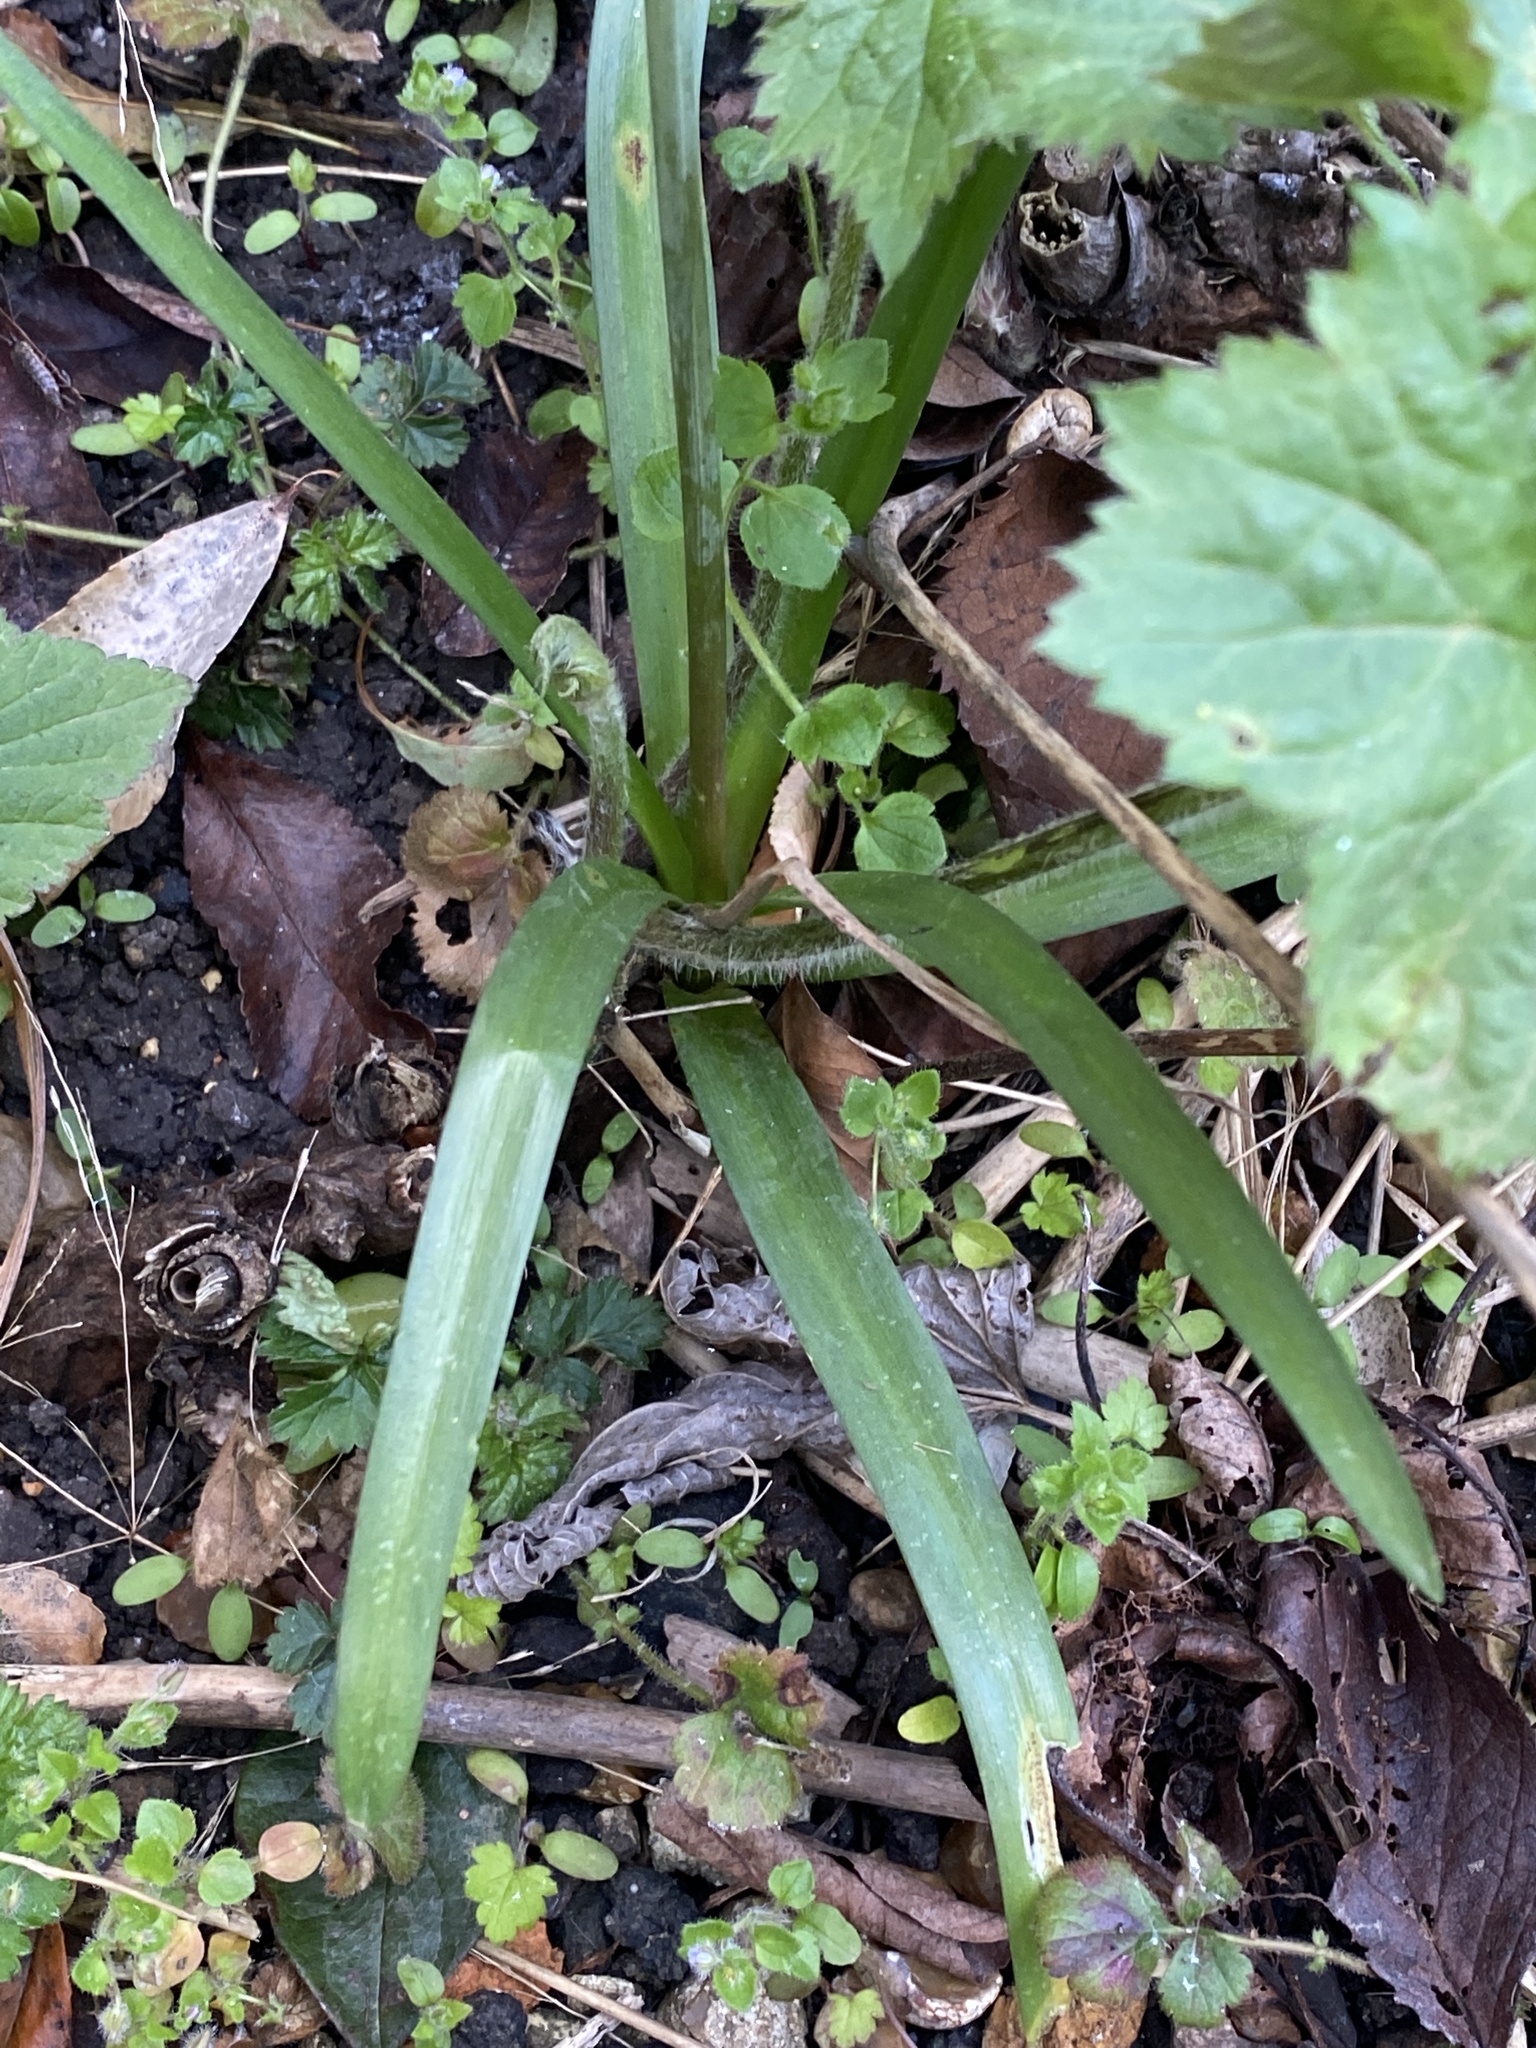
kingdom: Plantae
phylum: Tracheophyta
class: Liliopsida
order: Asparagales
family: Asparagaceae
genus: Hyacinthoides
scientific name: Hyacinthoides non-scripta
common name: Bluebell
